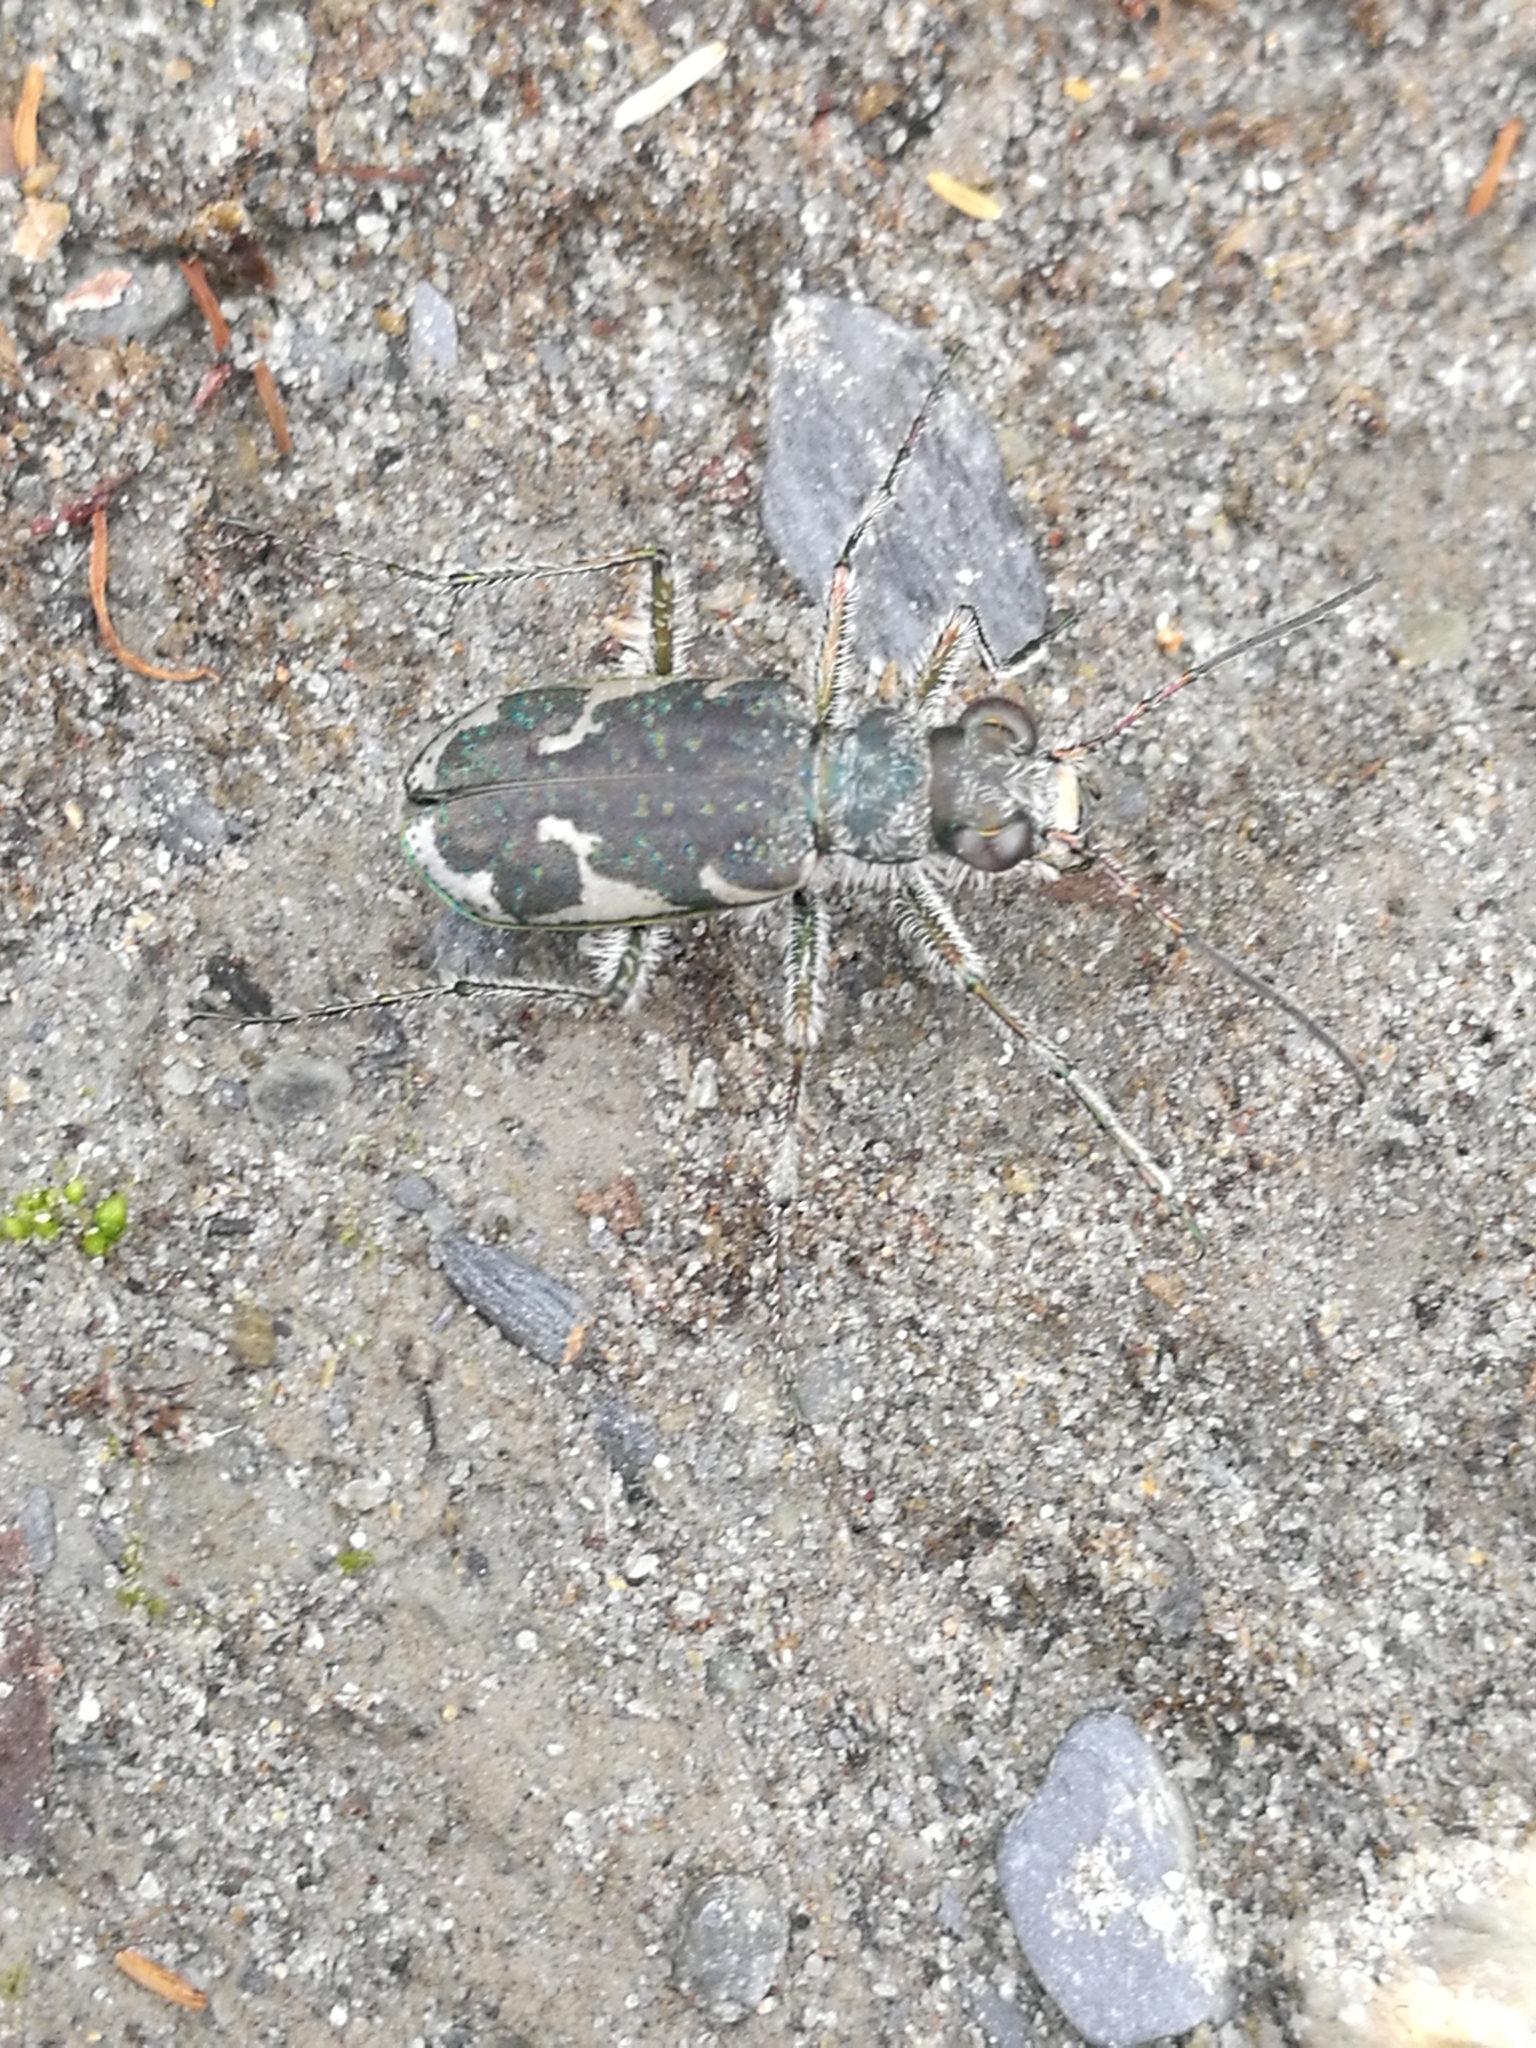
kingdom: Animalia
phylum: Arthropoda
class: Insecta
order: Coleoptera
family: Carabidae
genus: Zecicindela
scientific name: Zecicindela helmsi
